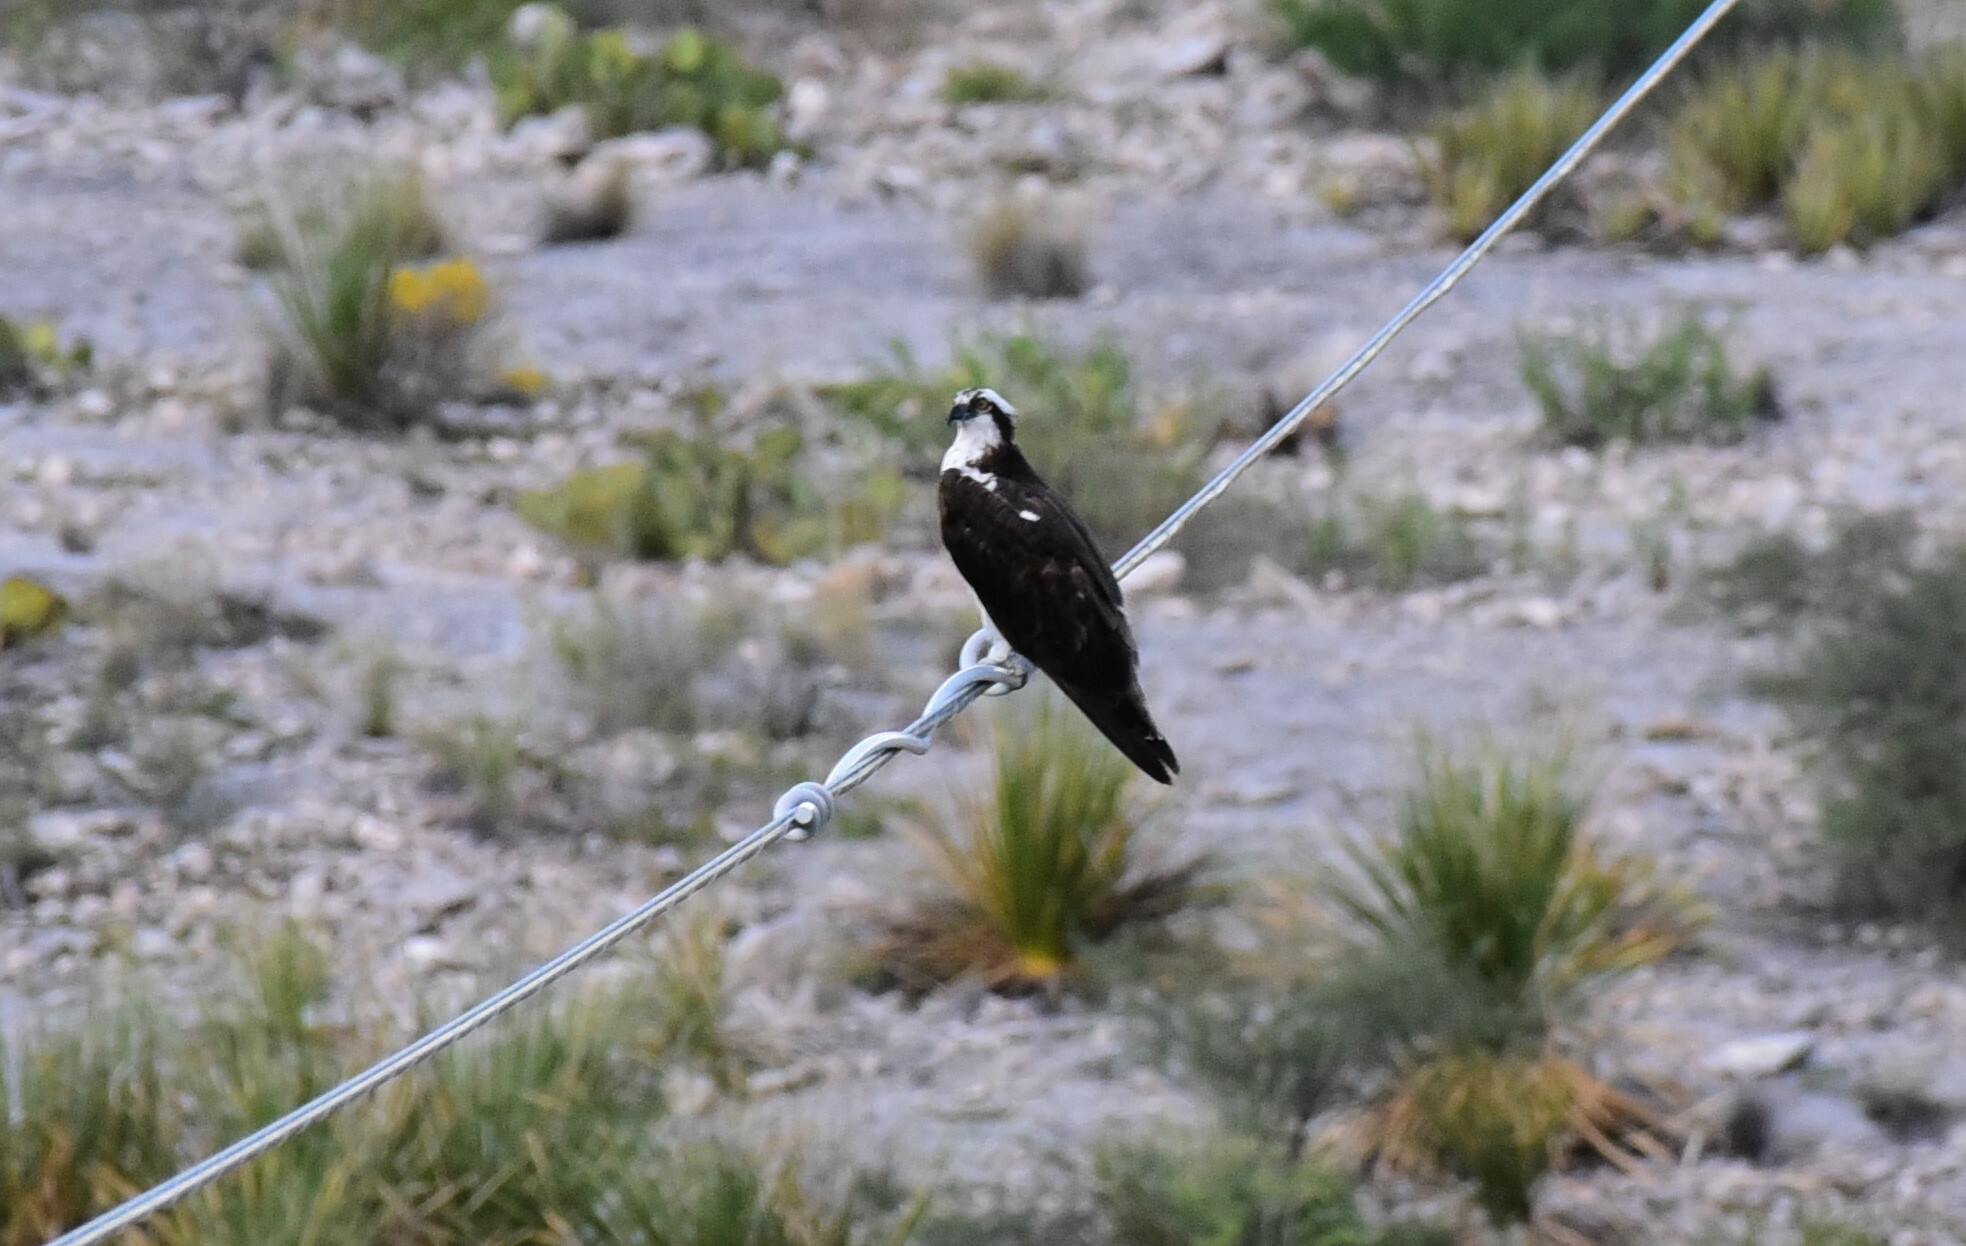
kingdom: Animalia
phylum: Chordata
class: Aves
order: Accipitriformes
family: Pandionidae
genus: Pandion
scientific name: Pandion haliaetus
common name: Osprey
